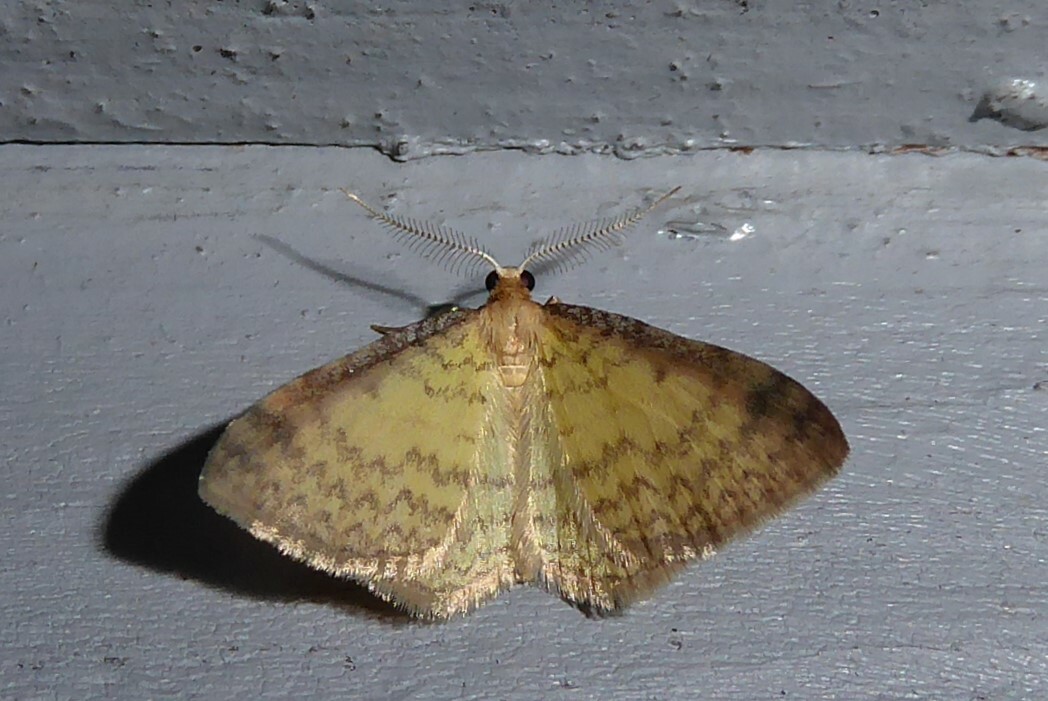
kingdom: Animalia
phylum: Arthropoda
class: Insecta
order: Lepidoptera
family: Geometridae
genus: Epiphryne
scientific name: Epiphryne undosata
